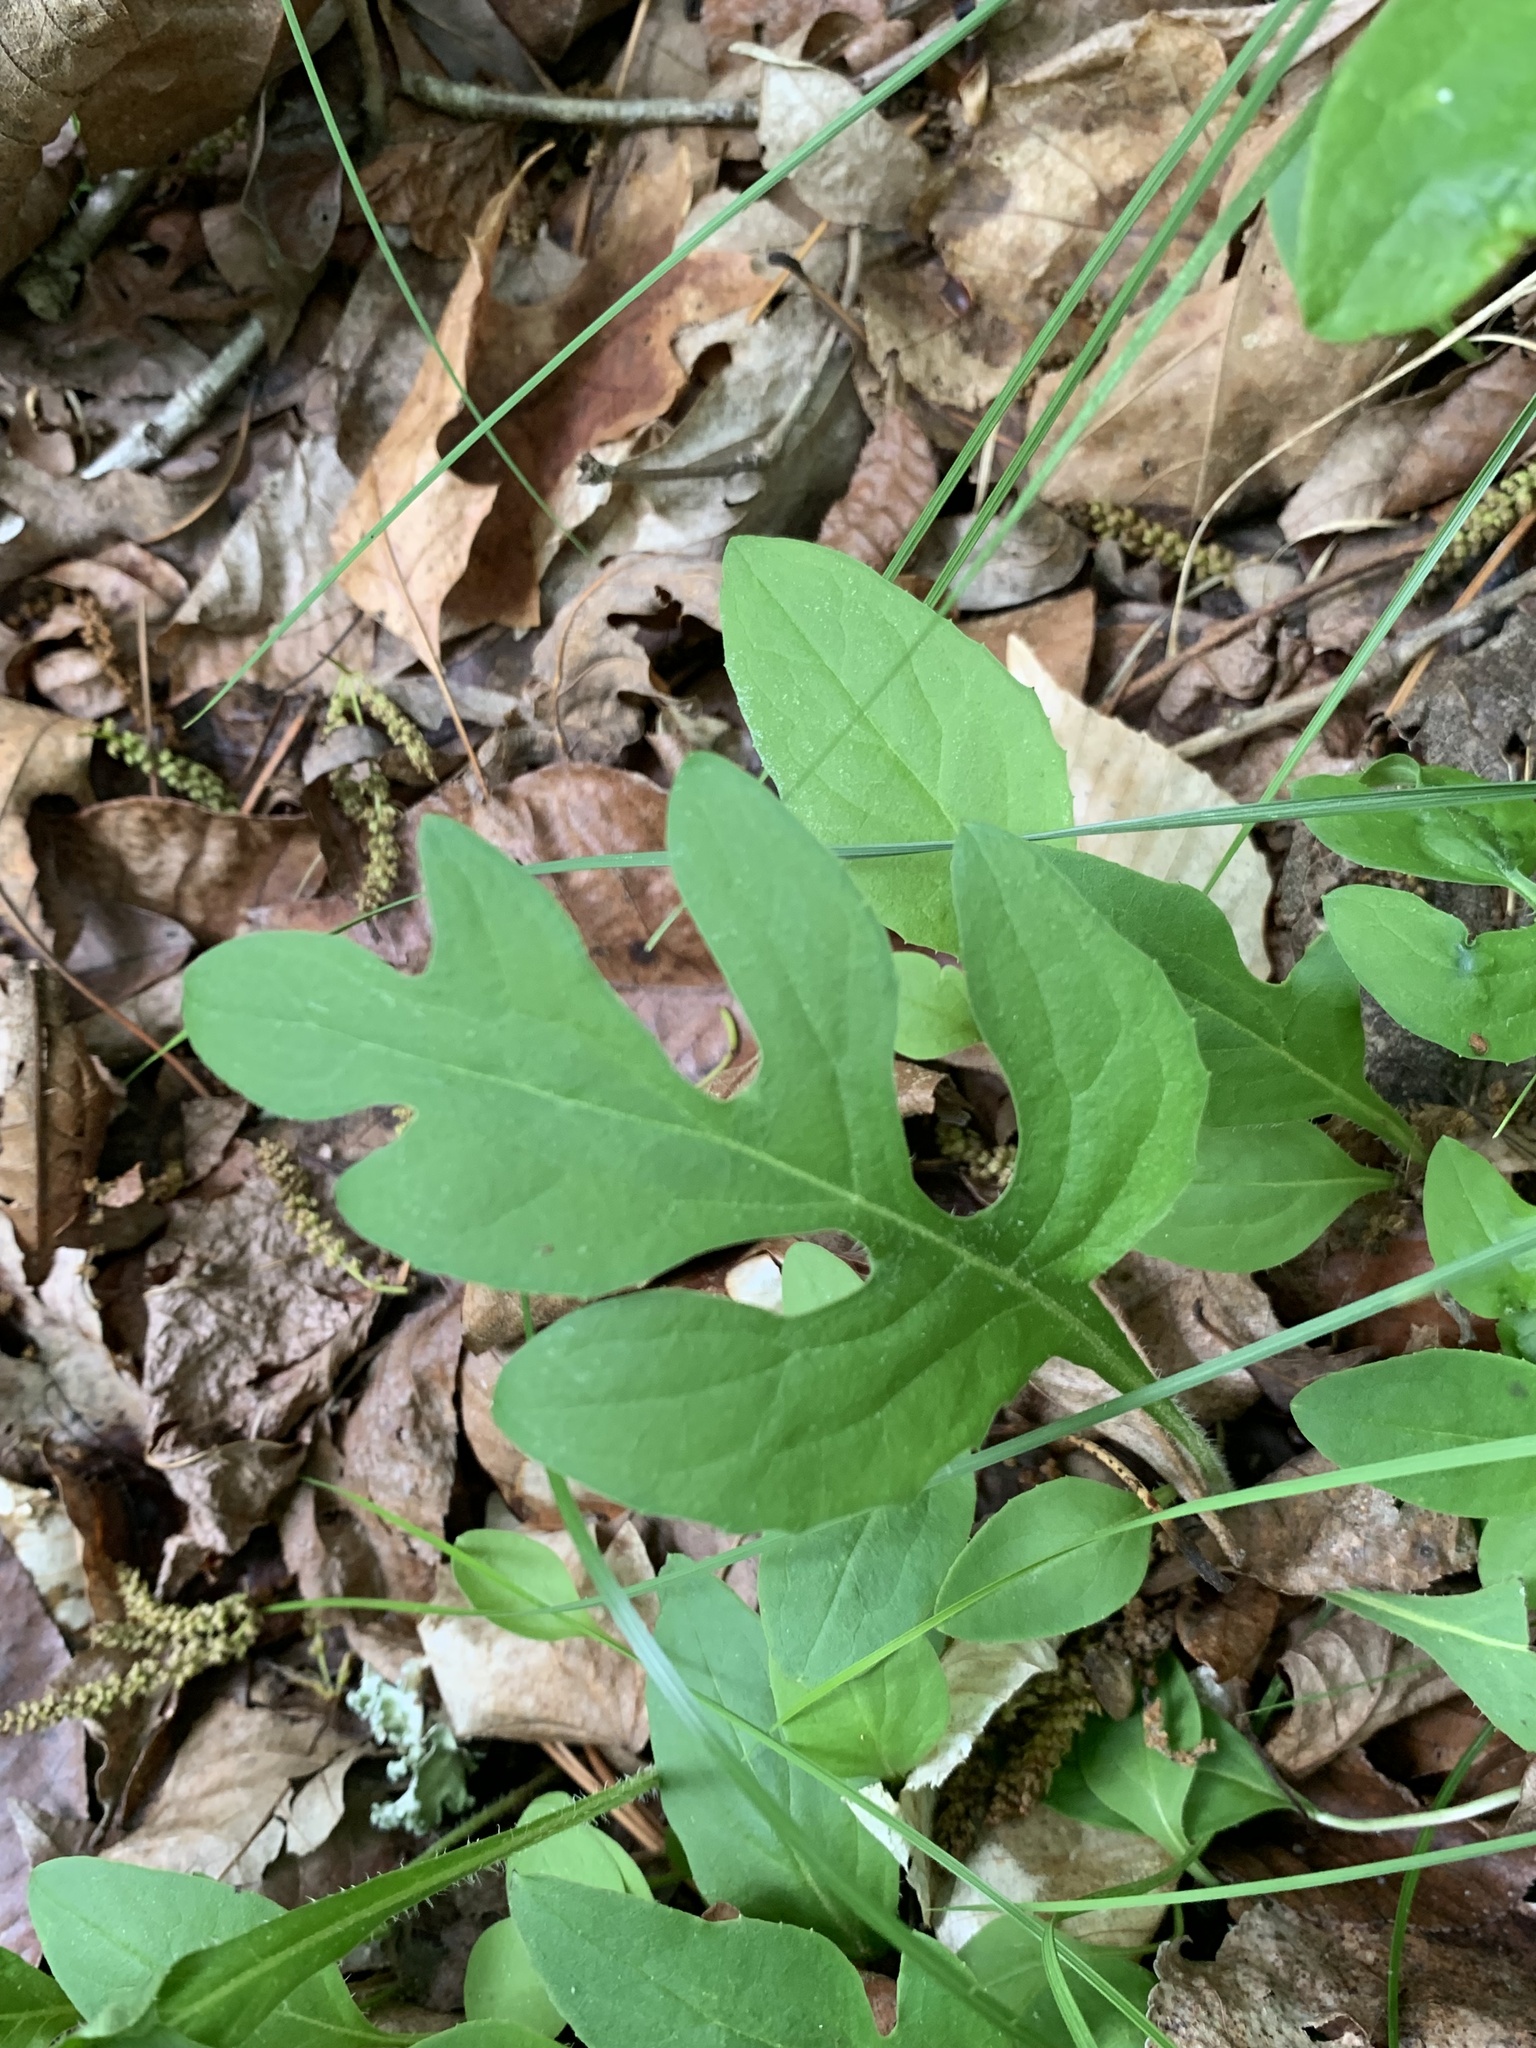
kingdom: Plantae
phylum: Tracheophyta
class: Magnoliopsida
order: Asterales
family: Asteraceae
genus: Nabalus
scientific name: Nabalus serpentarius
